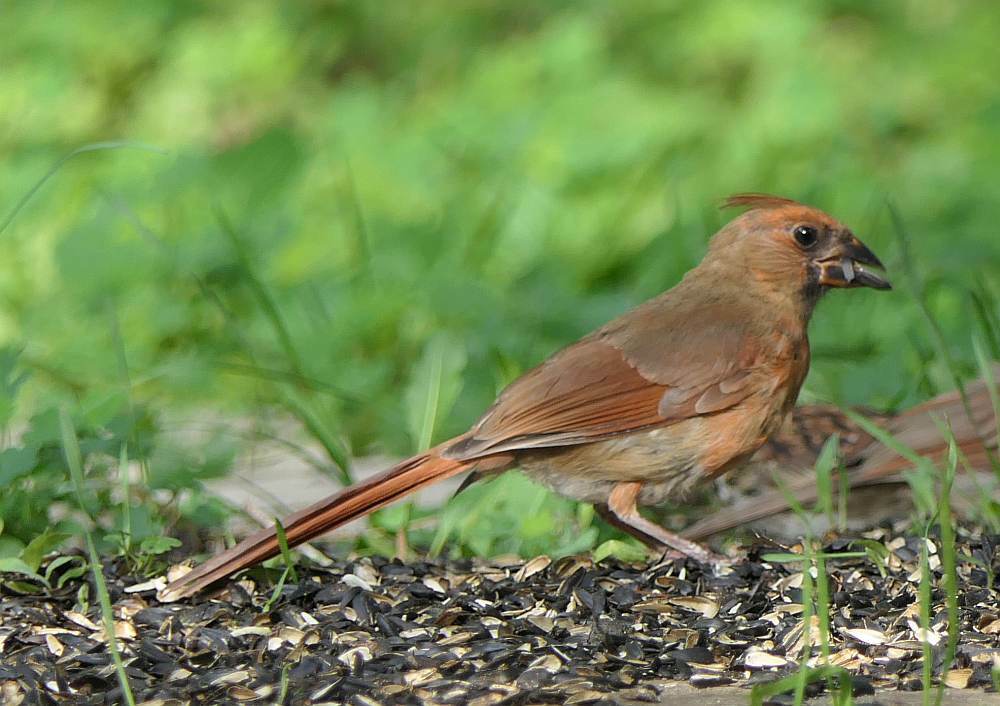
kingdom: Animalia
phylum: Chordata
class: Aves
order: Passeriformes
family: Cardinalidae
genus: Cardinalis
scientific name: Cardinalis cardinalis
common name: Northern cardinal
